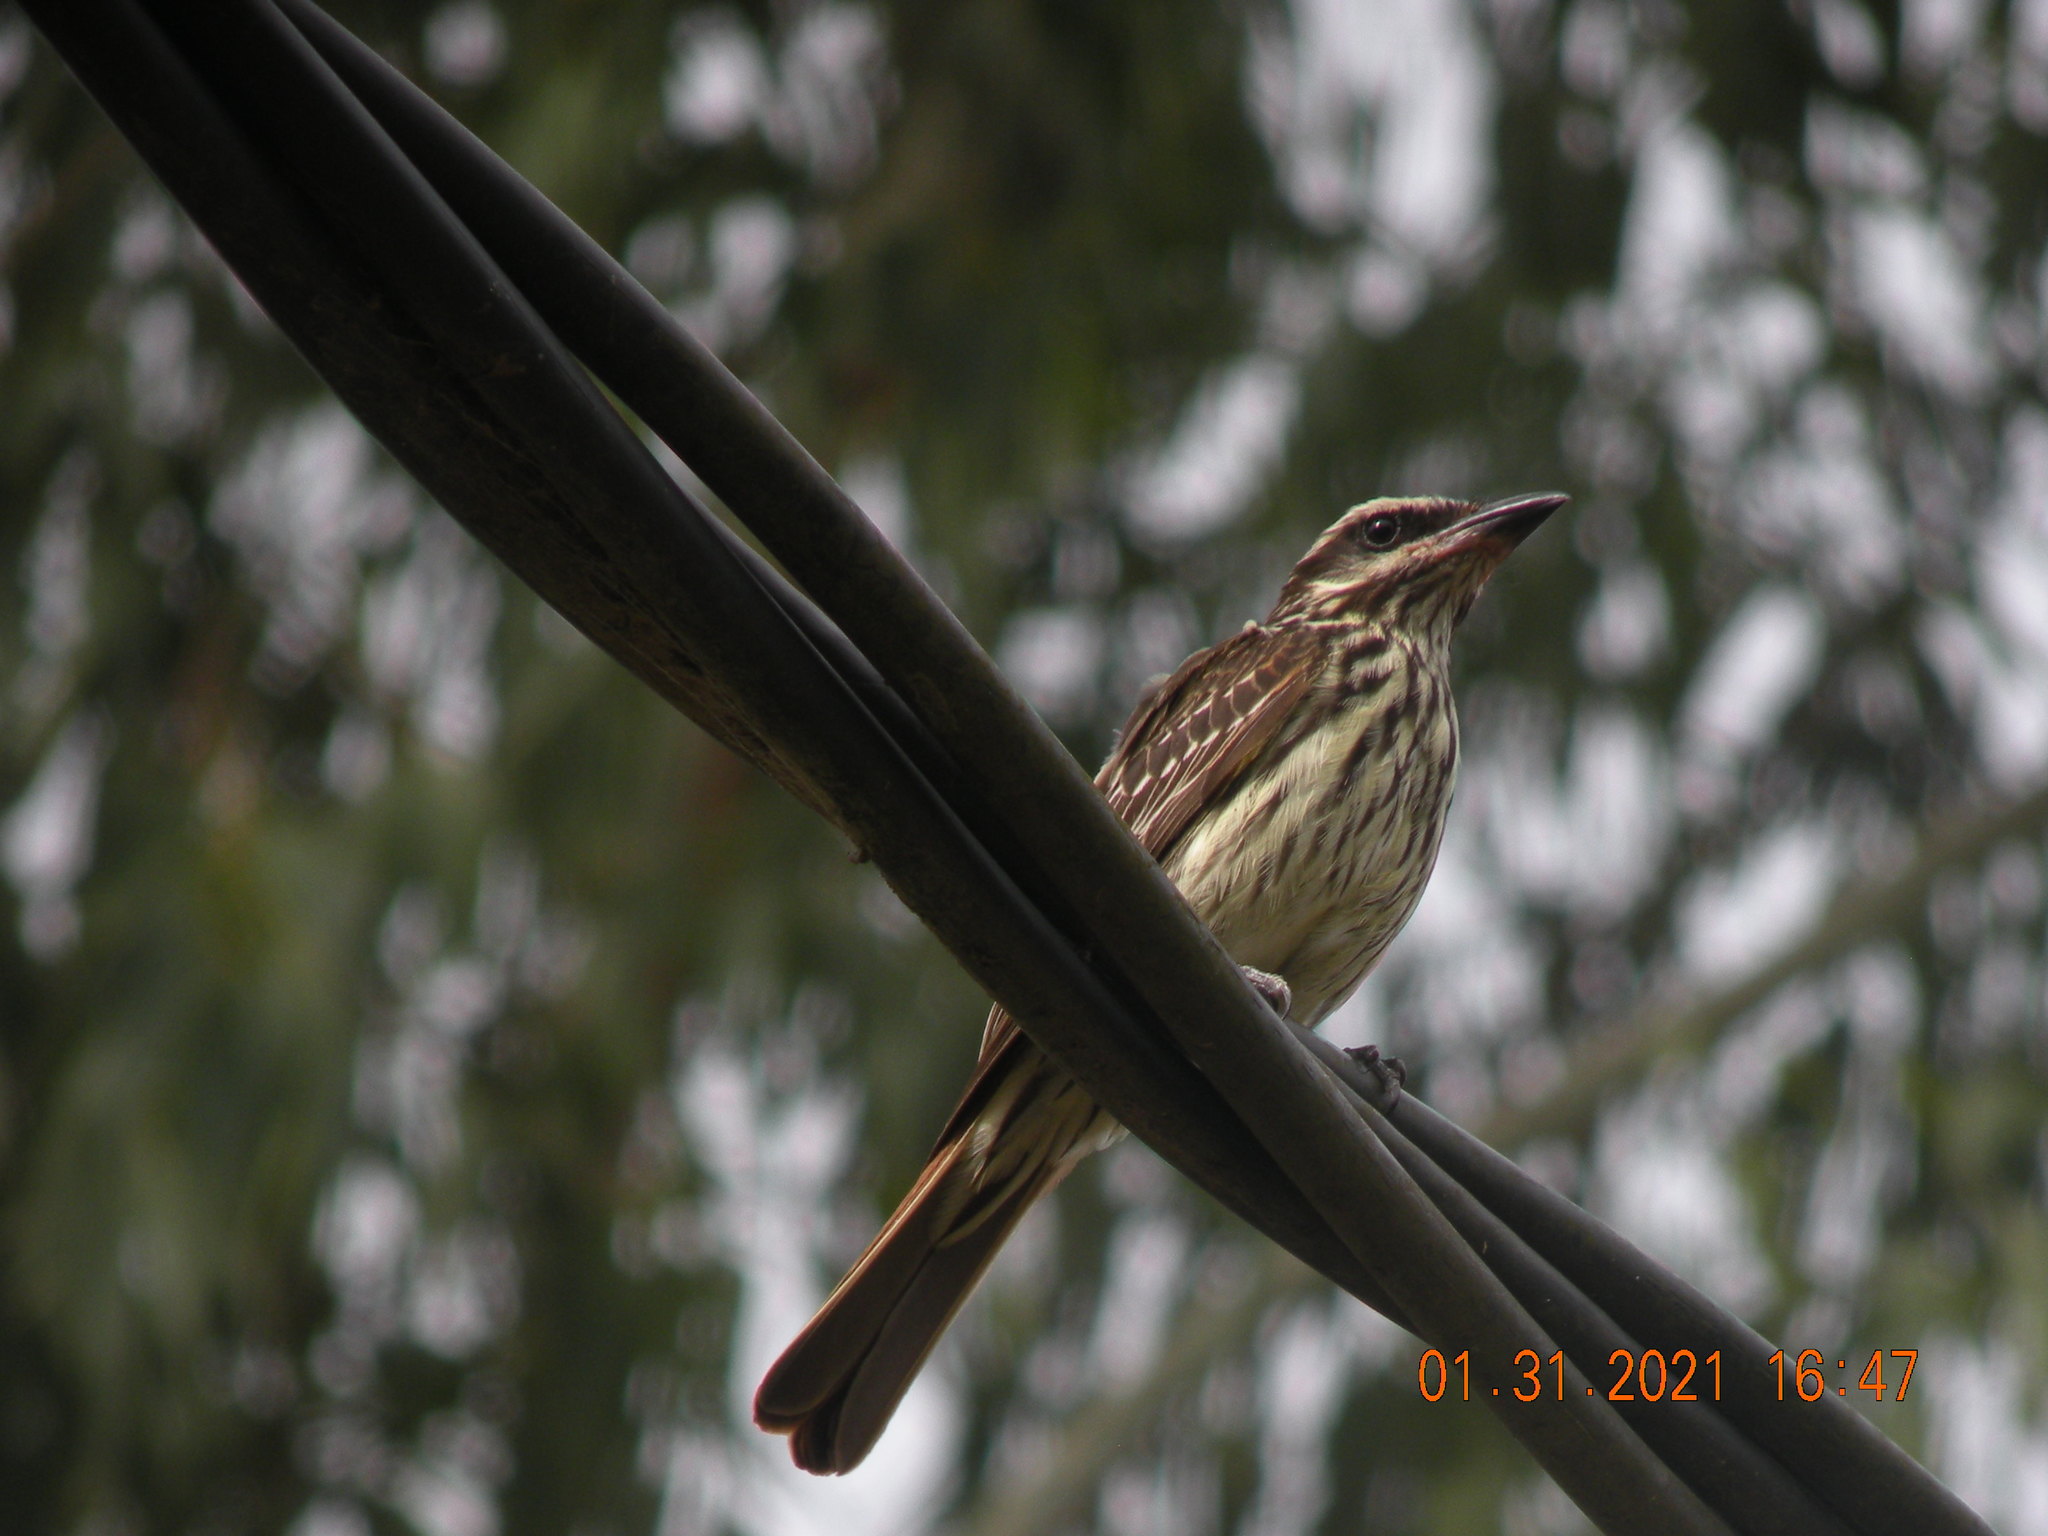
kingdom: Animalia
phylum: Chordata
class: Aves
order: Passeriformes
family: Tyrannidae
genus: Myiodynastes
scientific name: Myiodynastes maculatus
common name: Streaked flycatcher
